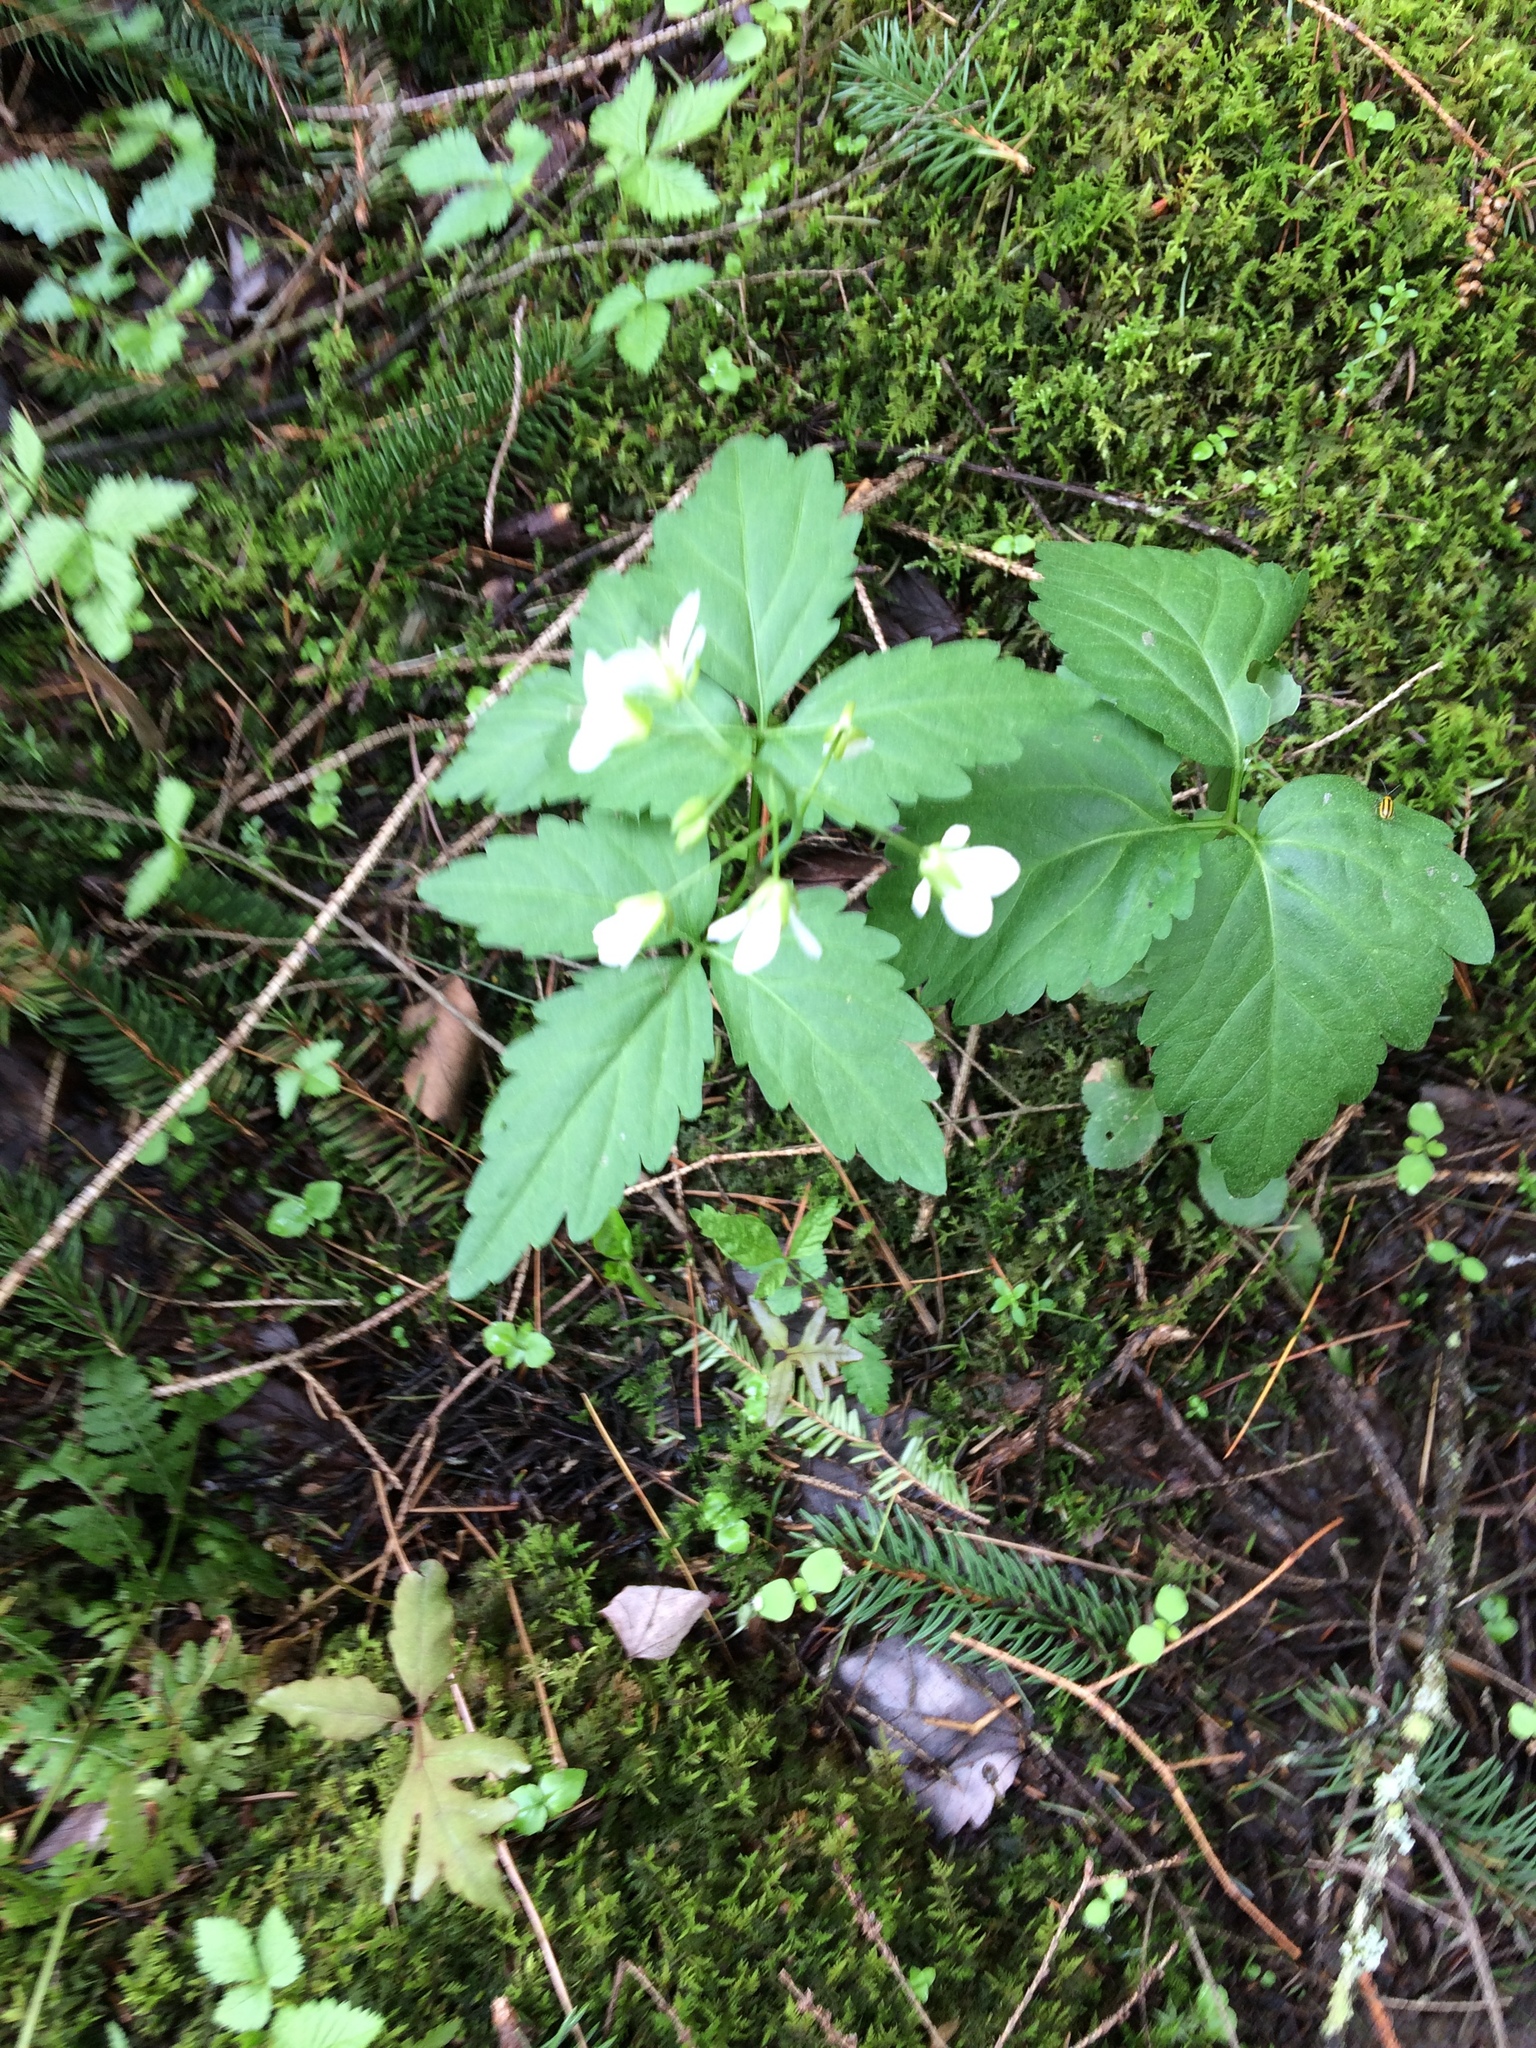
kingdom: Plantae
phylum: Tracheophyta
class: Magnoliopsida
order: Brassicales
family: Brassicaceae
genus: Cardamine
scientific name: Cardamine diphylla
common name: Broad-leaved toothwort
